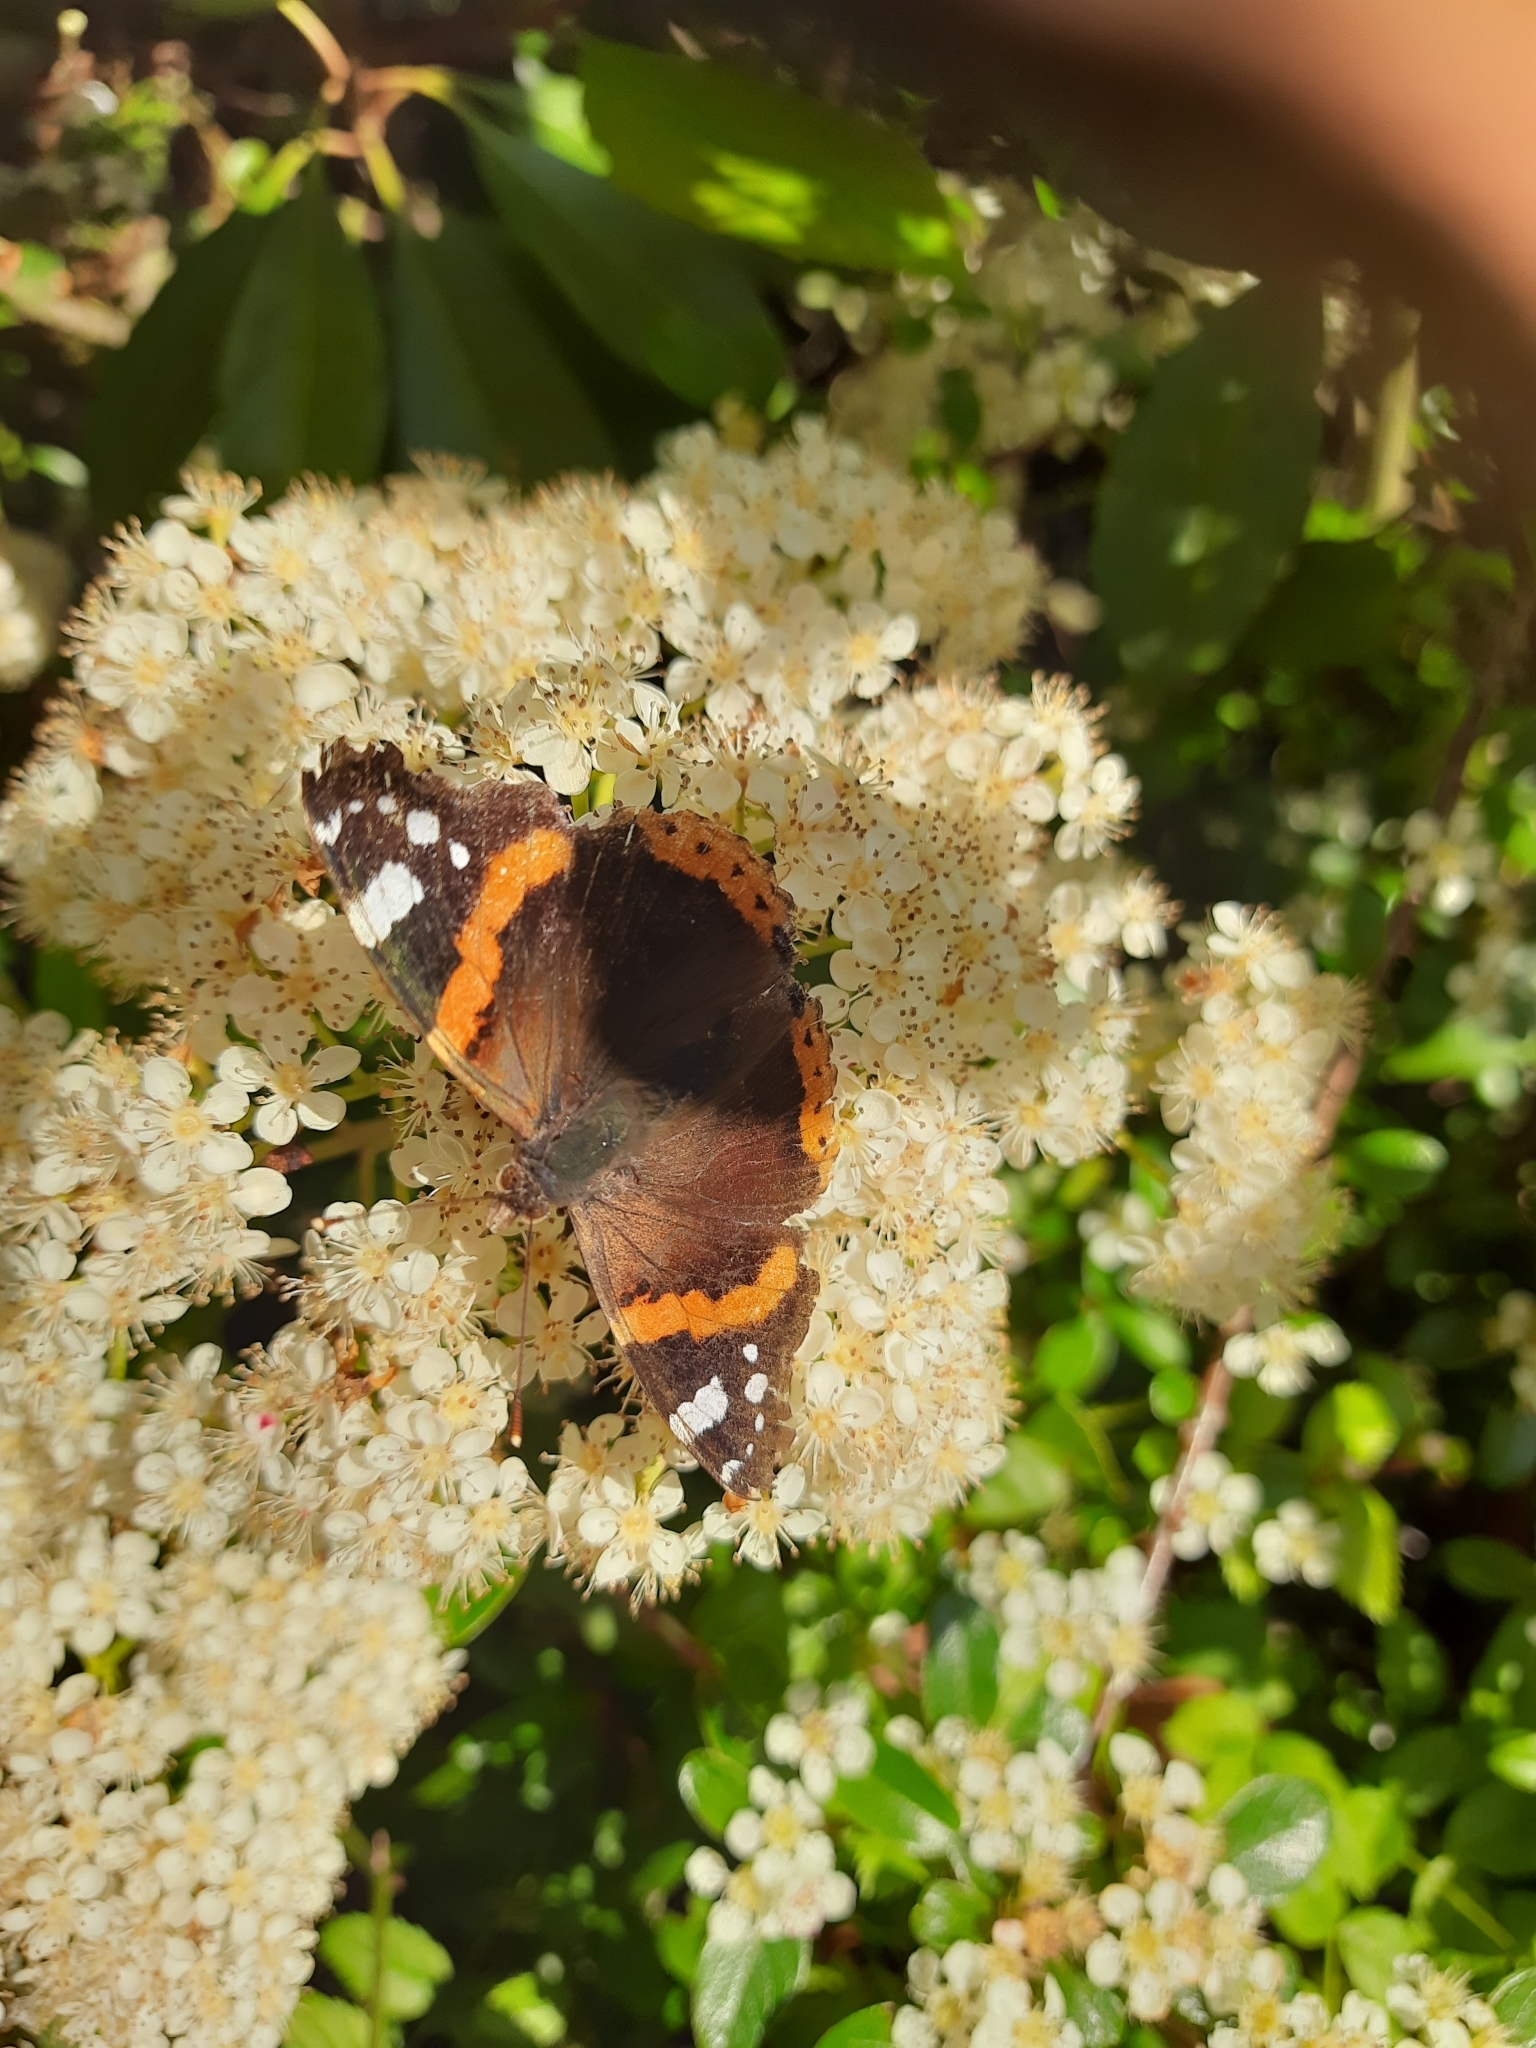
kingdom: Animalia
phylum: Arthropoda
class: Insecta
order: Lepidoptera
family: Nymphalidae
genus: Vanessa
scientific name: Vanessa atalanta
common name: Red admiral
